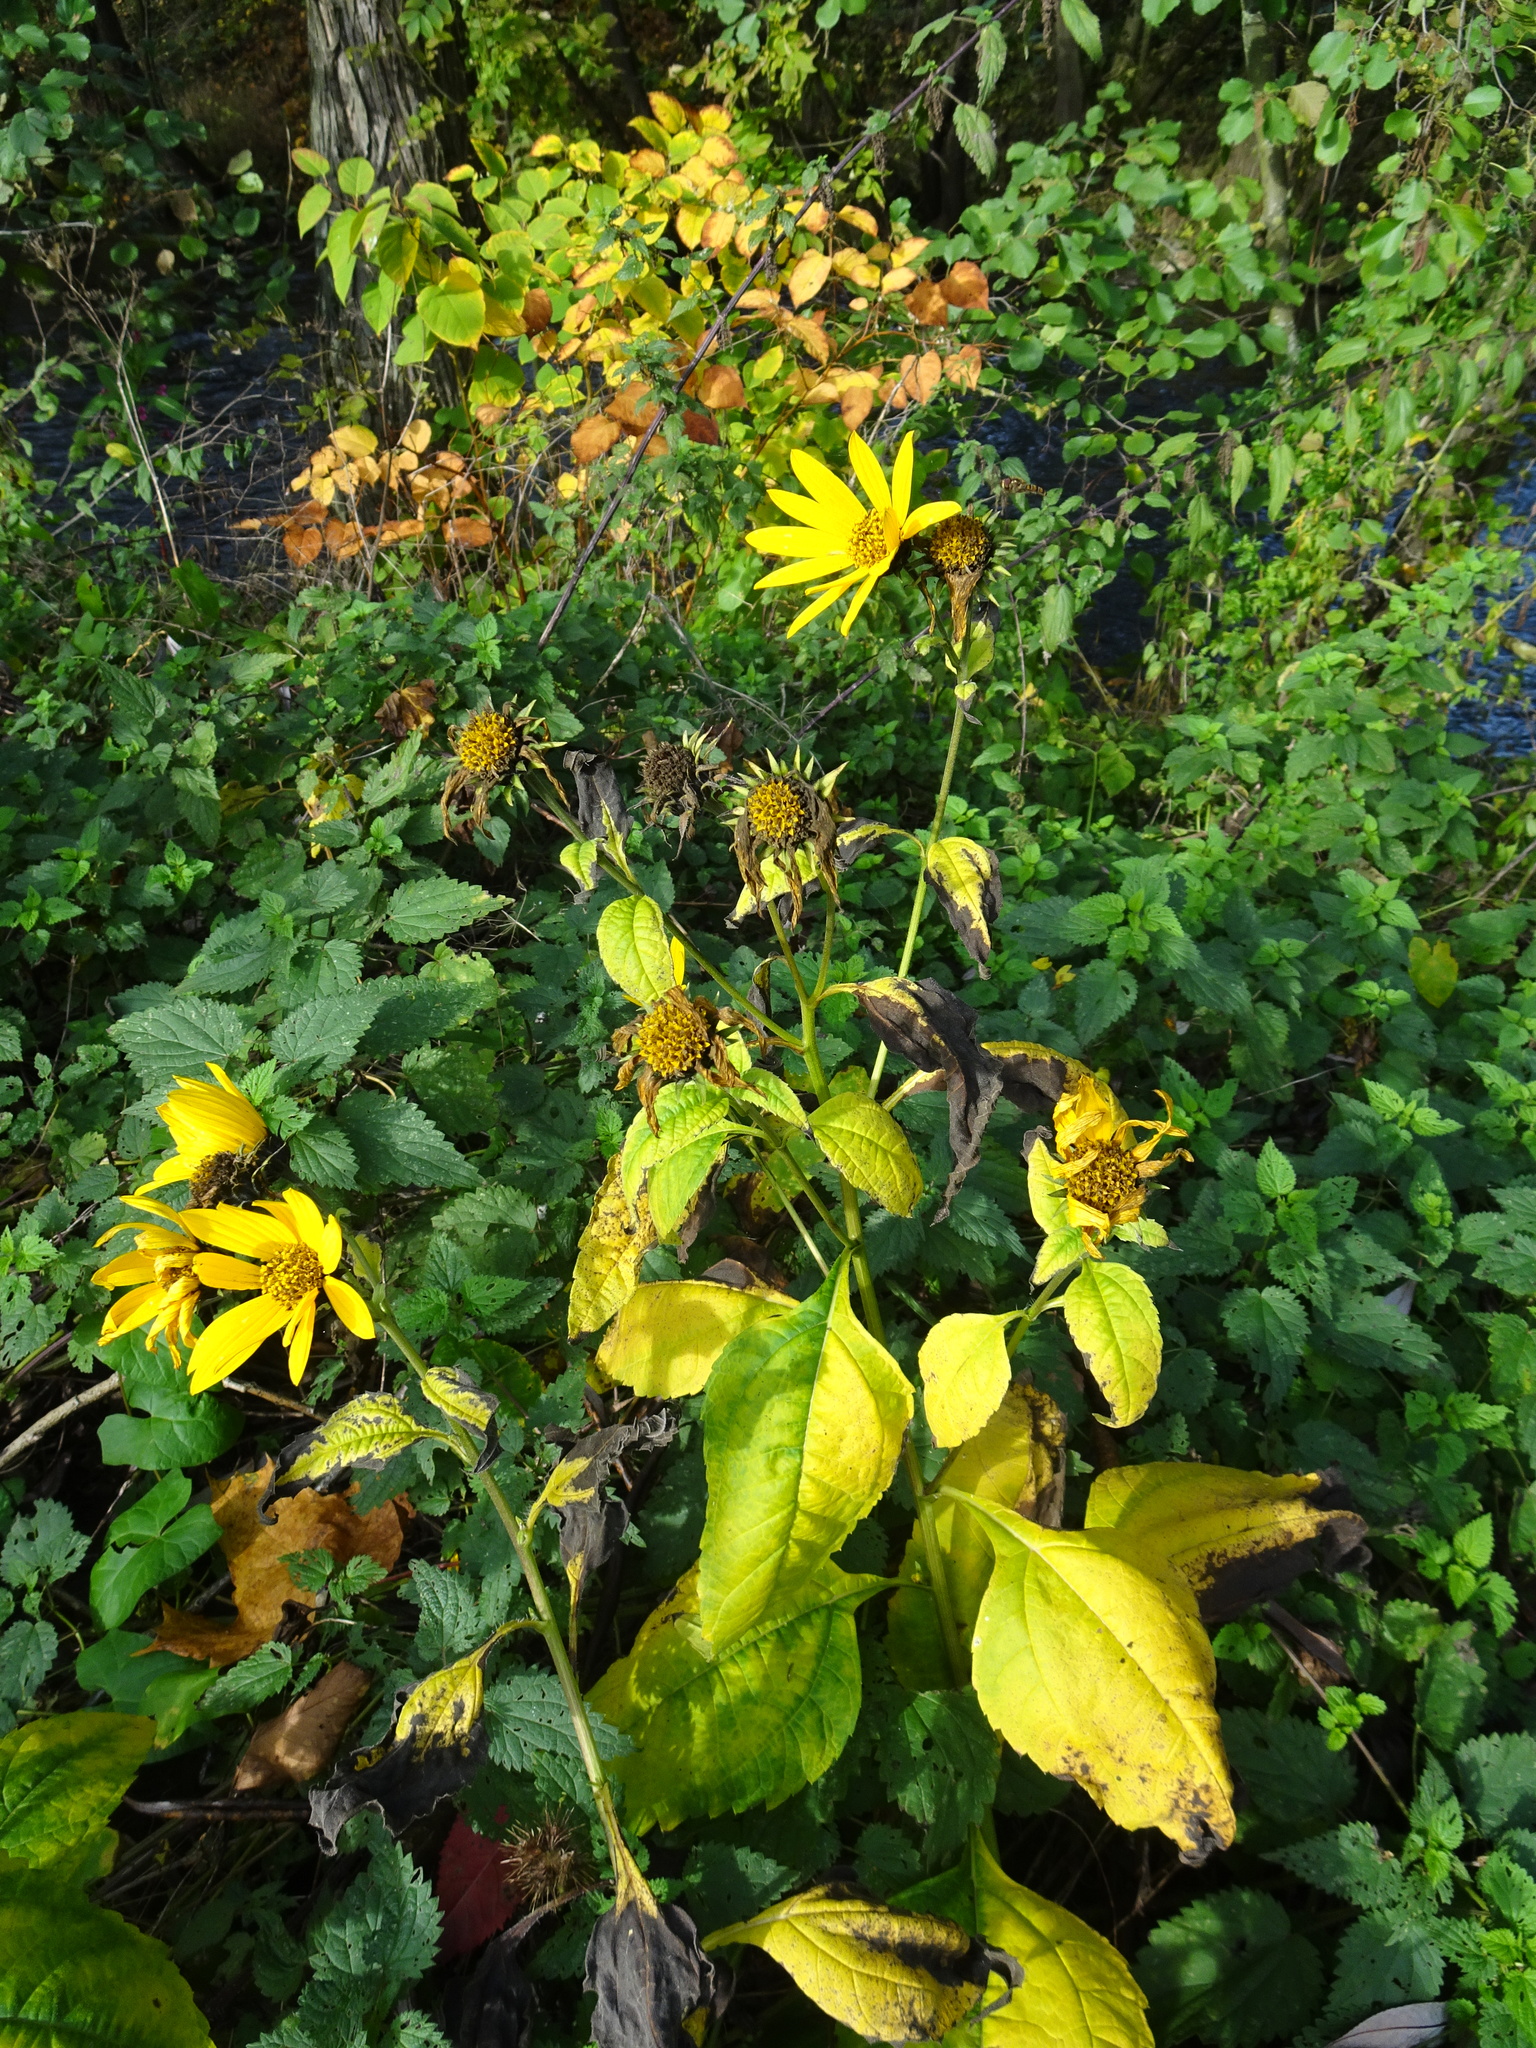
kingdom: Plantae
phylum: Tracheophyta
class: Magnoliopsida
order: Asterales
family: Asteraceae
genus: Helianthus
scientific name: Helianthus tuberosus
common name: Jerusalem artichoke
